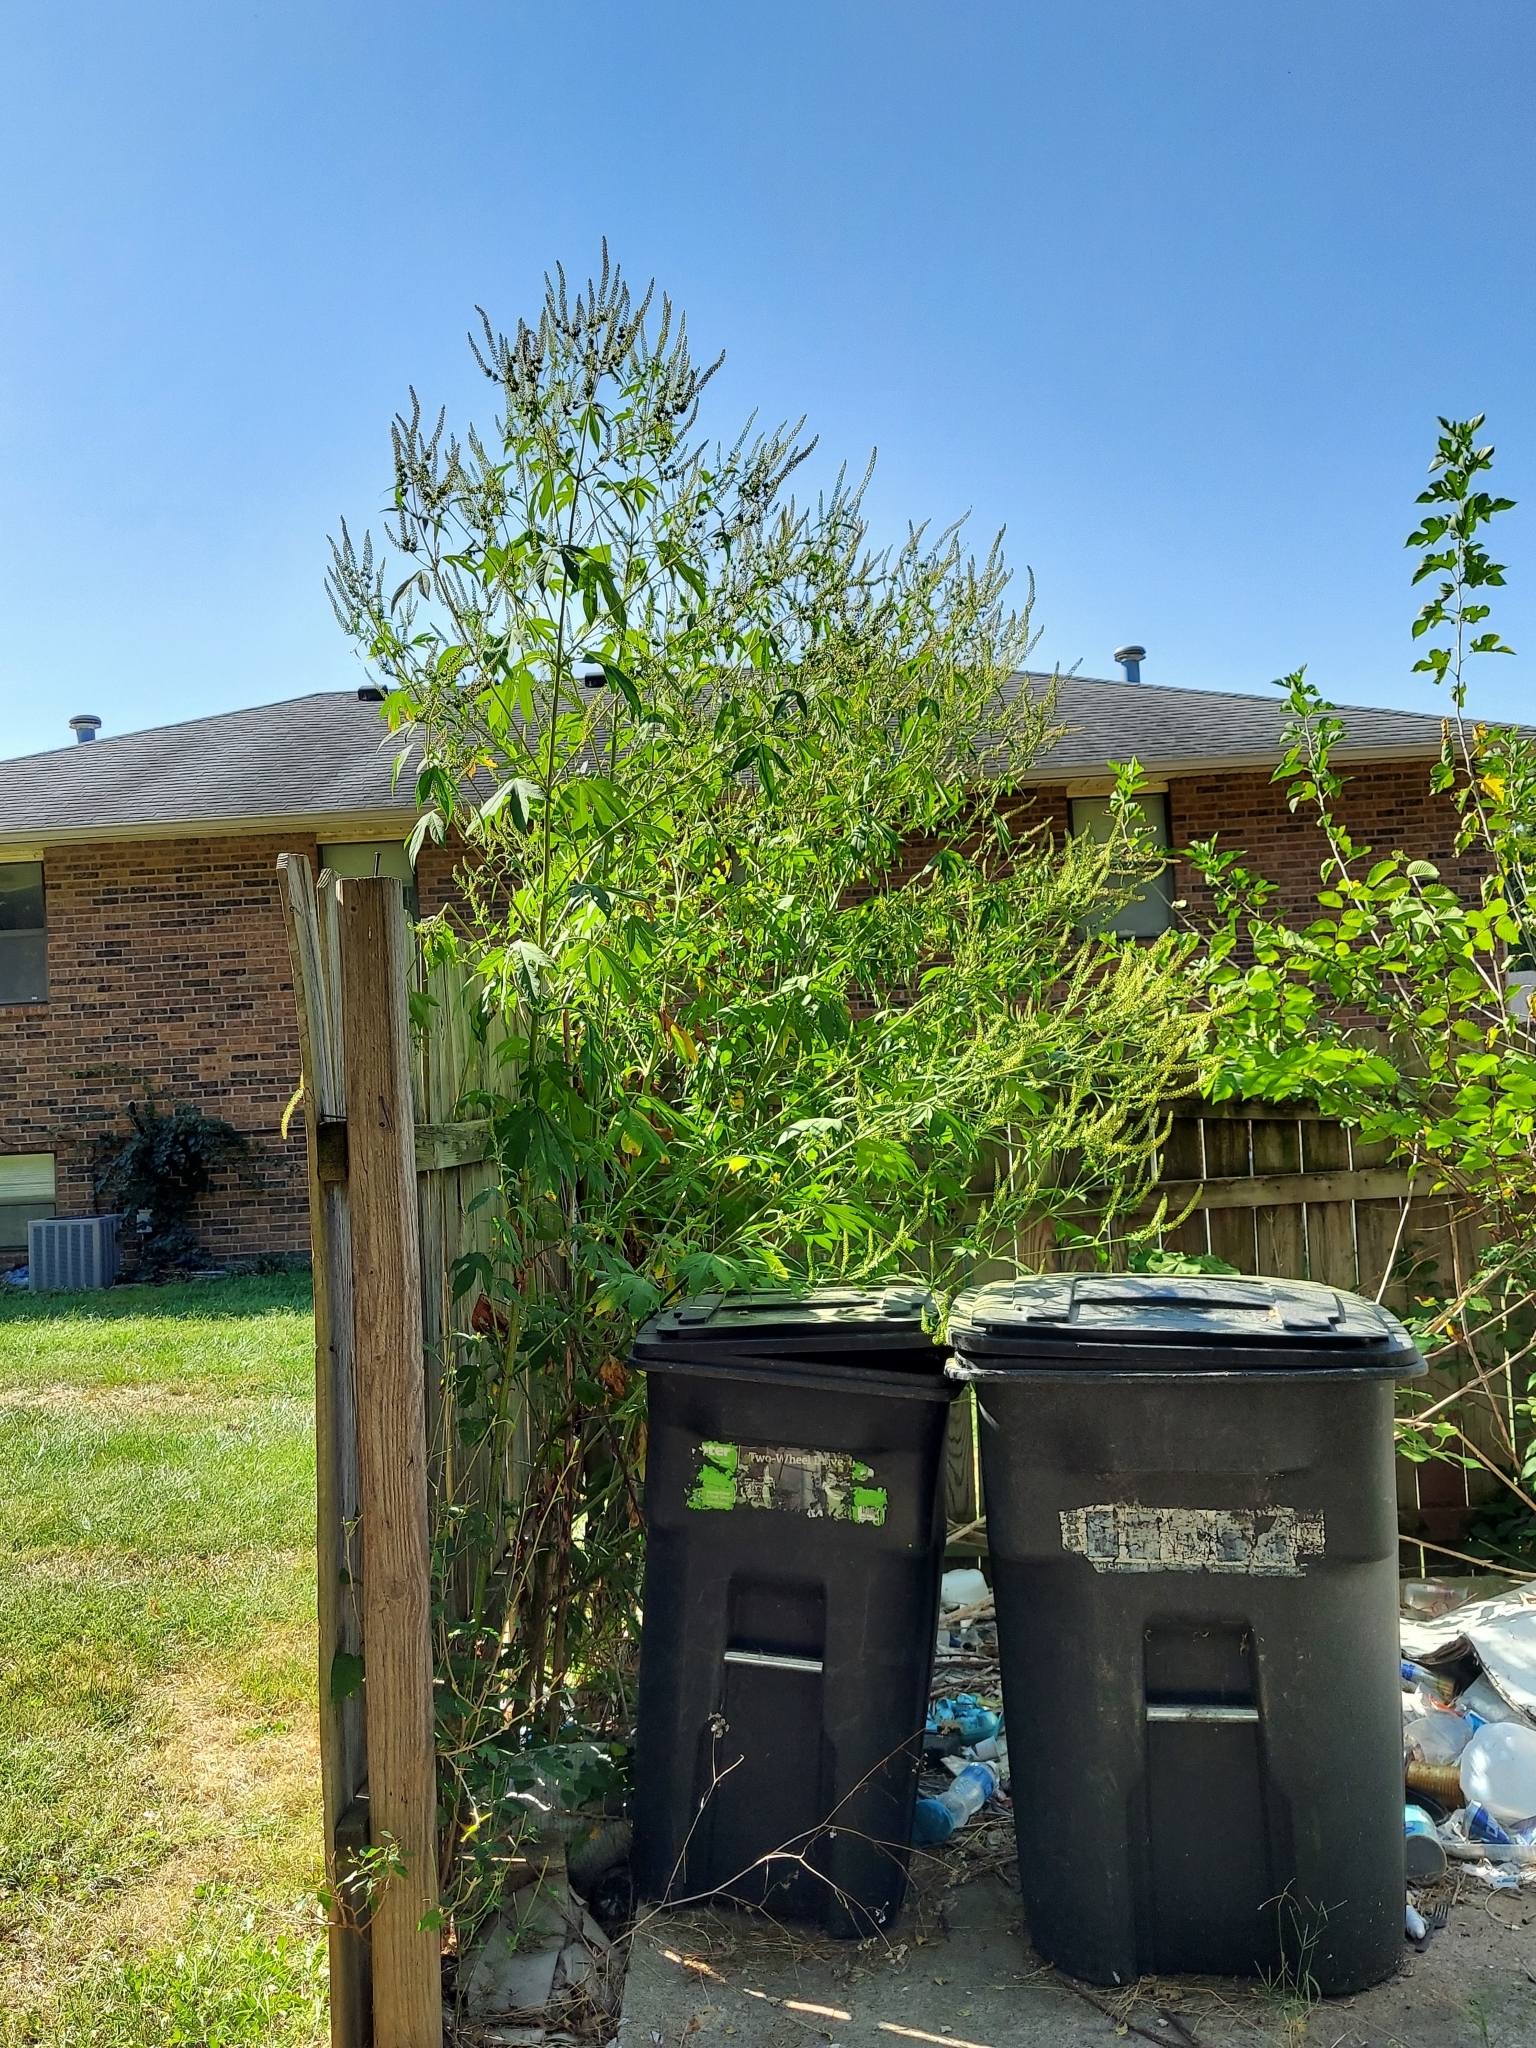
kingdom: Plantae
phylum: Tracheophyta
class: Magnoliopsida
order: Asterales
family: Asteraceae
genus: Ambrosia
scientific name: Ambrosia trifida
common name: Giant ragweed
